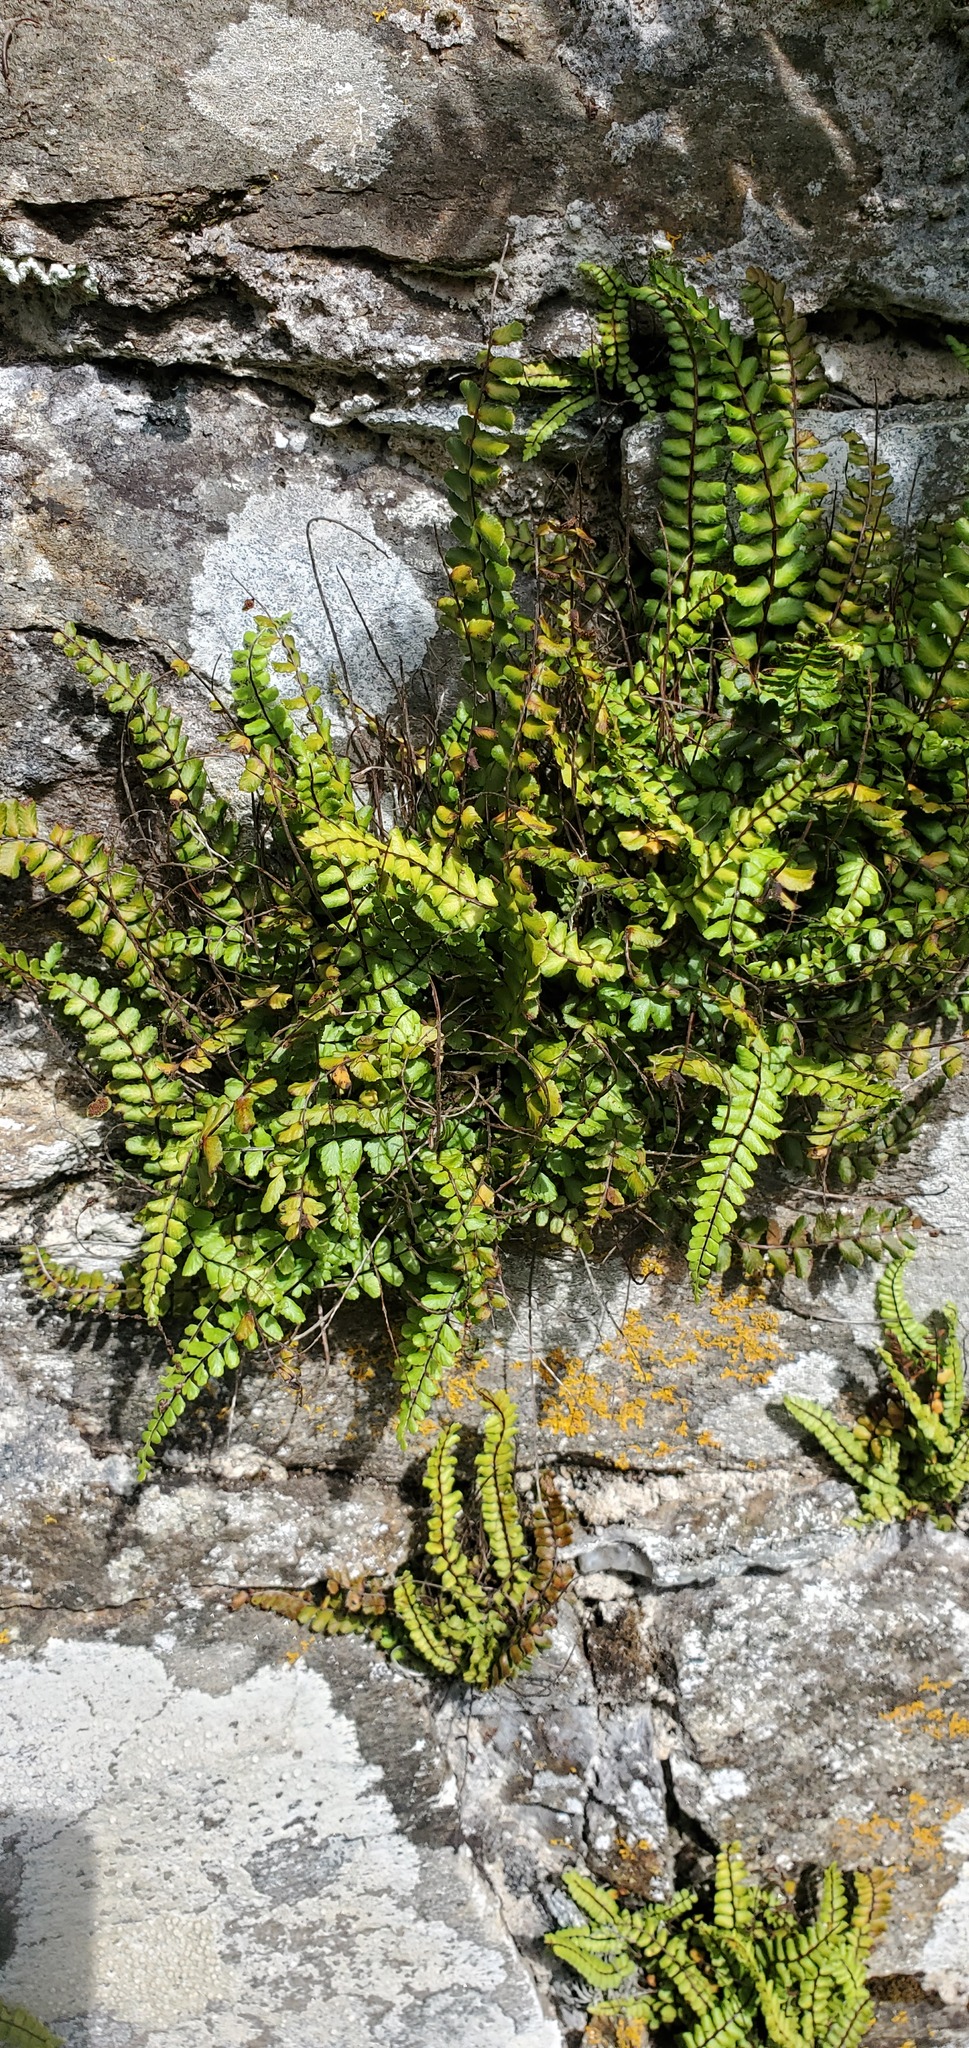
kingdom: Plantae
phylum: Tracheophyta
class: Polypodiopsida
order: Polypodiales
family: Aspleniaceae
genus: Asplenium
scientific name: Asplenium trichomanes
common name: Maidenhair spleenwort
